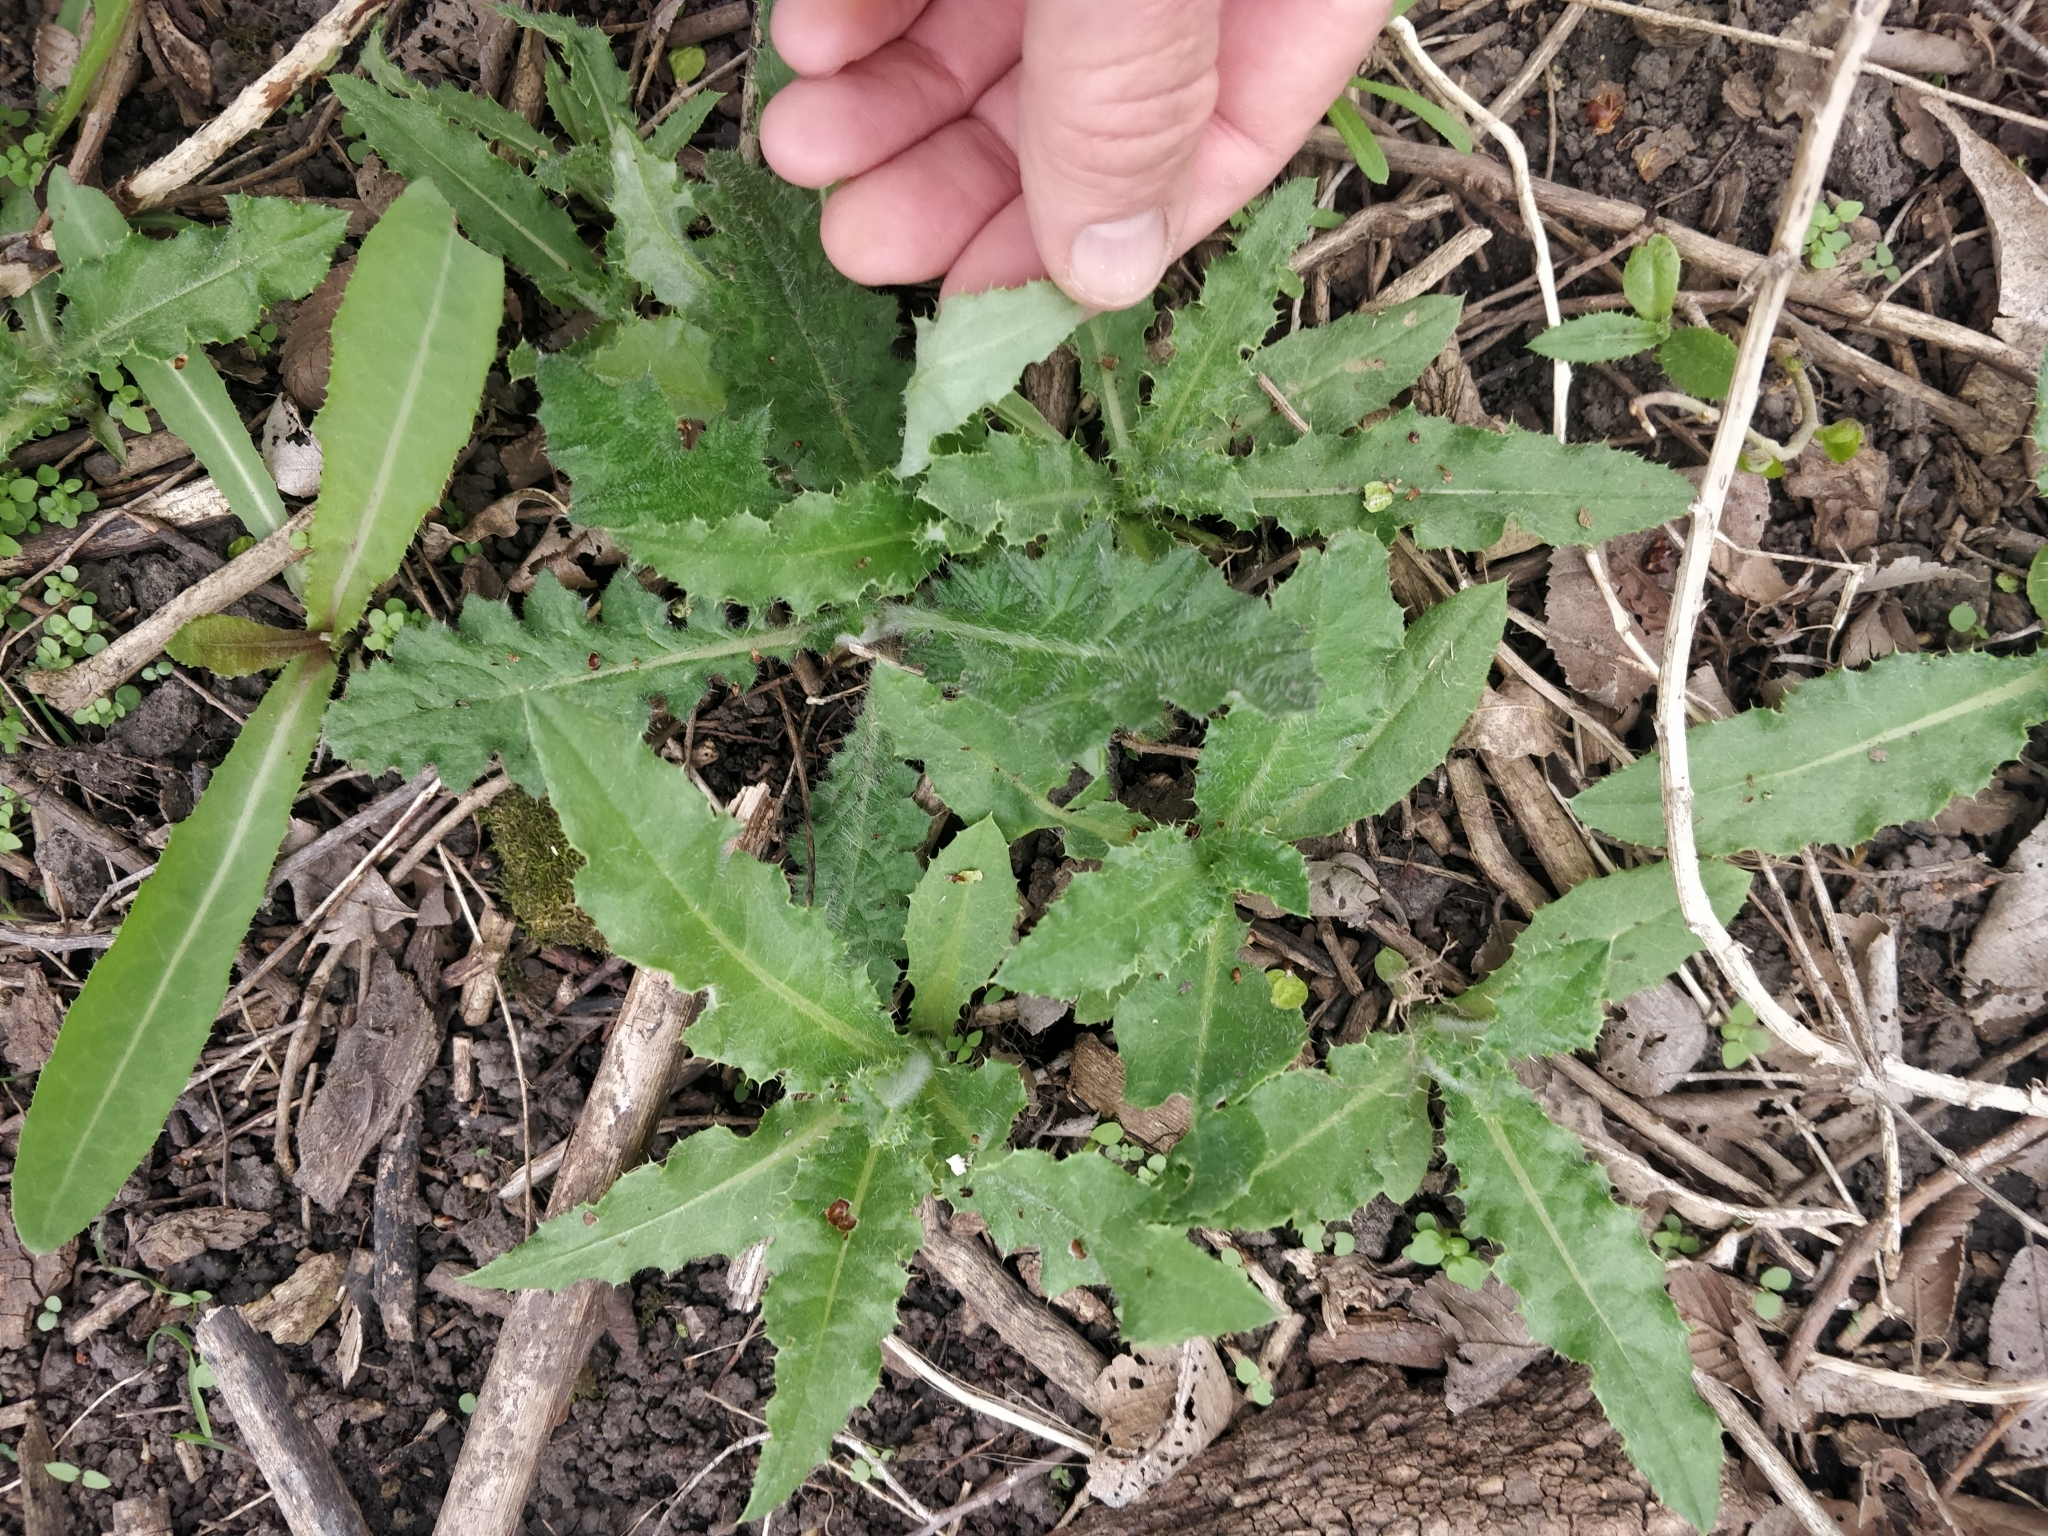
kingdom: Plantae
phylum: Tracheophyta
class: Magnoliopsida
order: Asterales
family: Asteraceae
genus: Cirsium
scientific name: Cirsium arvense
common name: Creeping thistle
